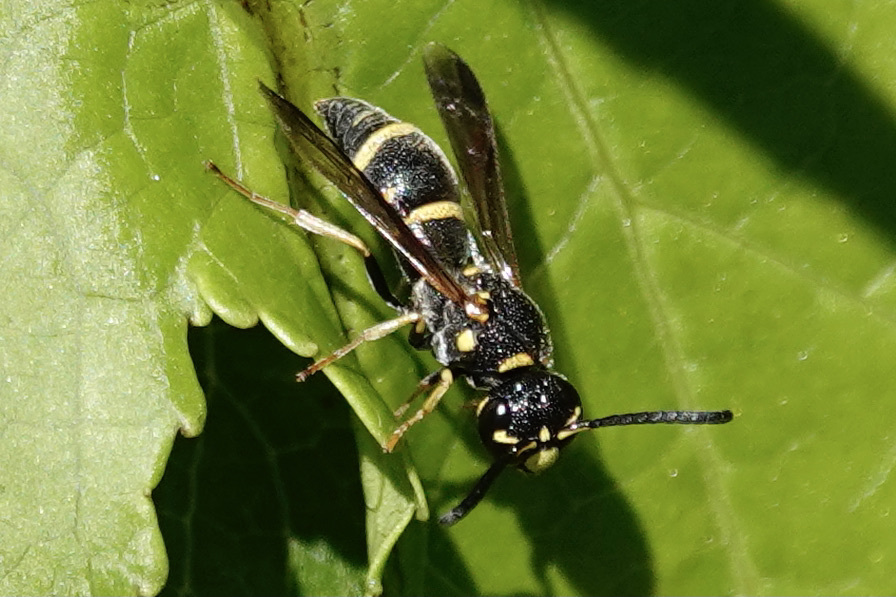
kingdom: Animalia
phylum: Arthropoda
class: Insecta
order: Hymenoptera
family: Eumenidae
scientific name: Eumenidae
